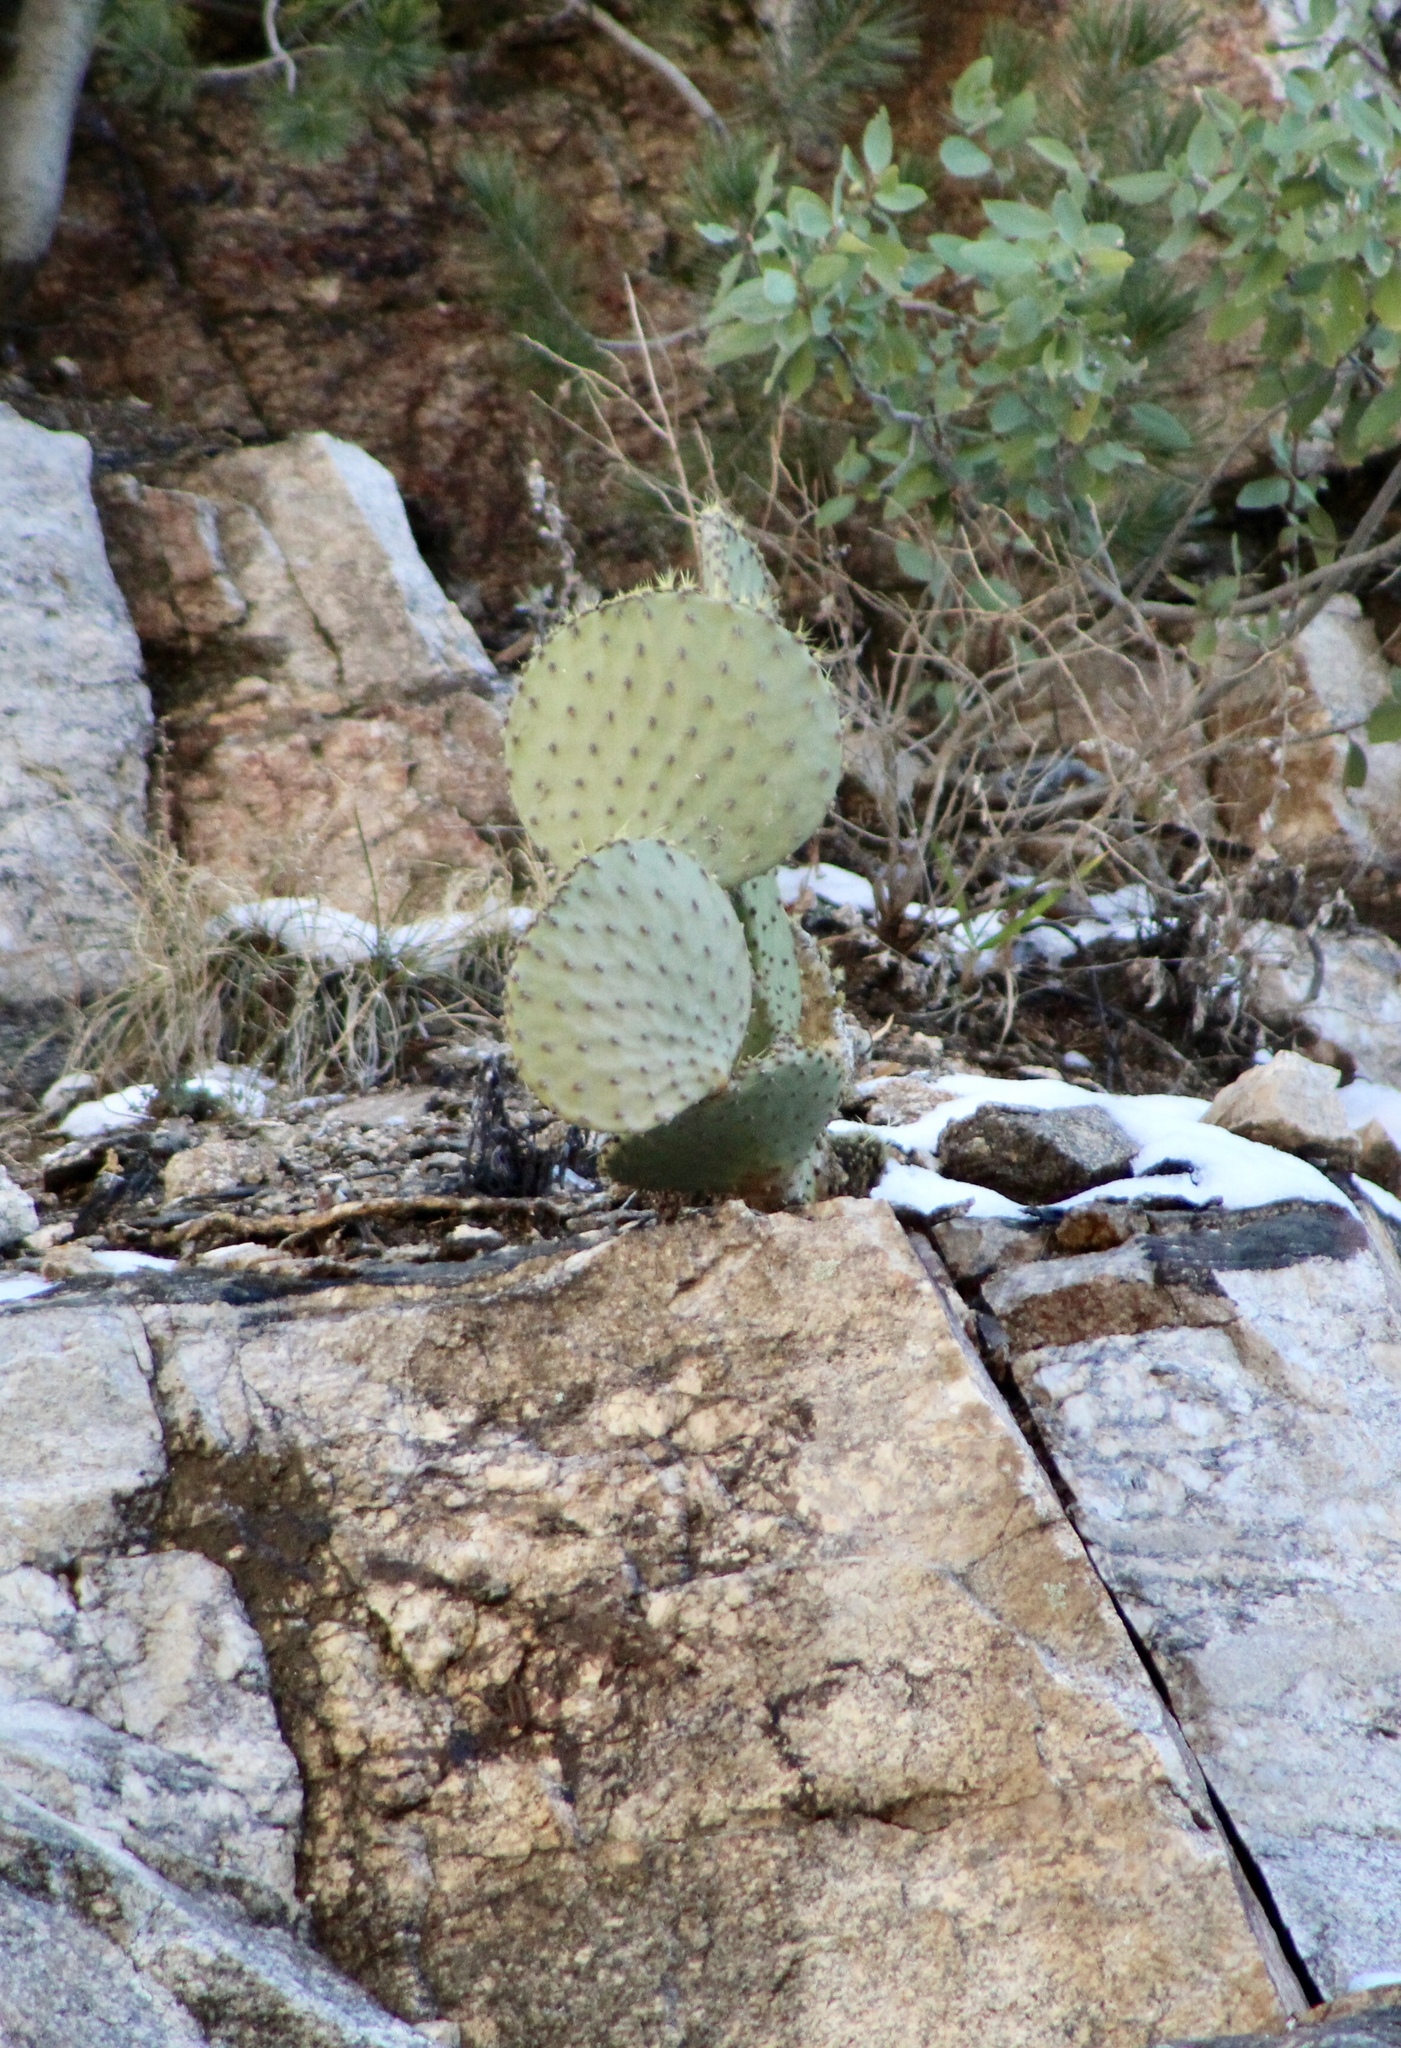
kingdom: Plantae
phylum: Tracheophyta
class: Magnoliopsida
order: Caryophyllales
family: Cactaceae
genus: Opuntia
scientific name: Opuntia chlorotica
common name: Dollar-joint prickly-pear
